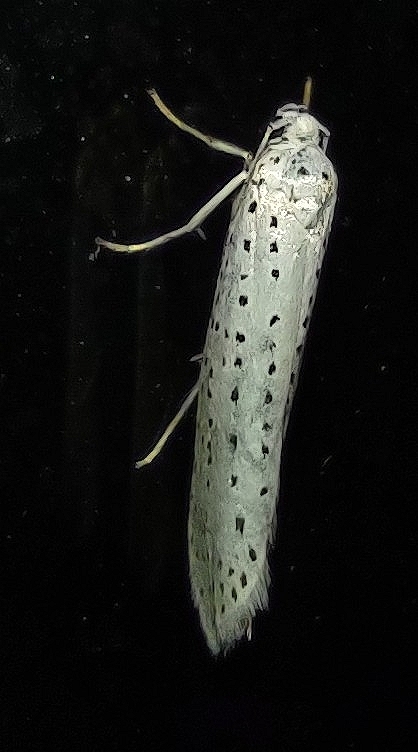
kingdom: Animalia
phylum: Arthropoda
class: Insecta
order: Lepidoptera
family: Yponomeutidae
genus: Yponomeuta
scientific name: Yponomeuta evonymella
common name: Bird-cherry ermine
